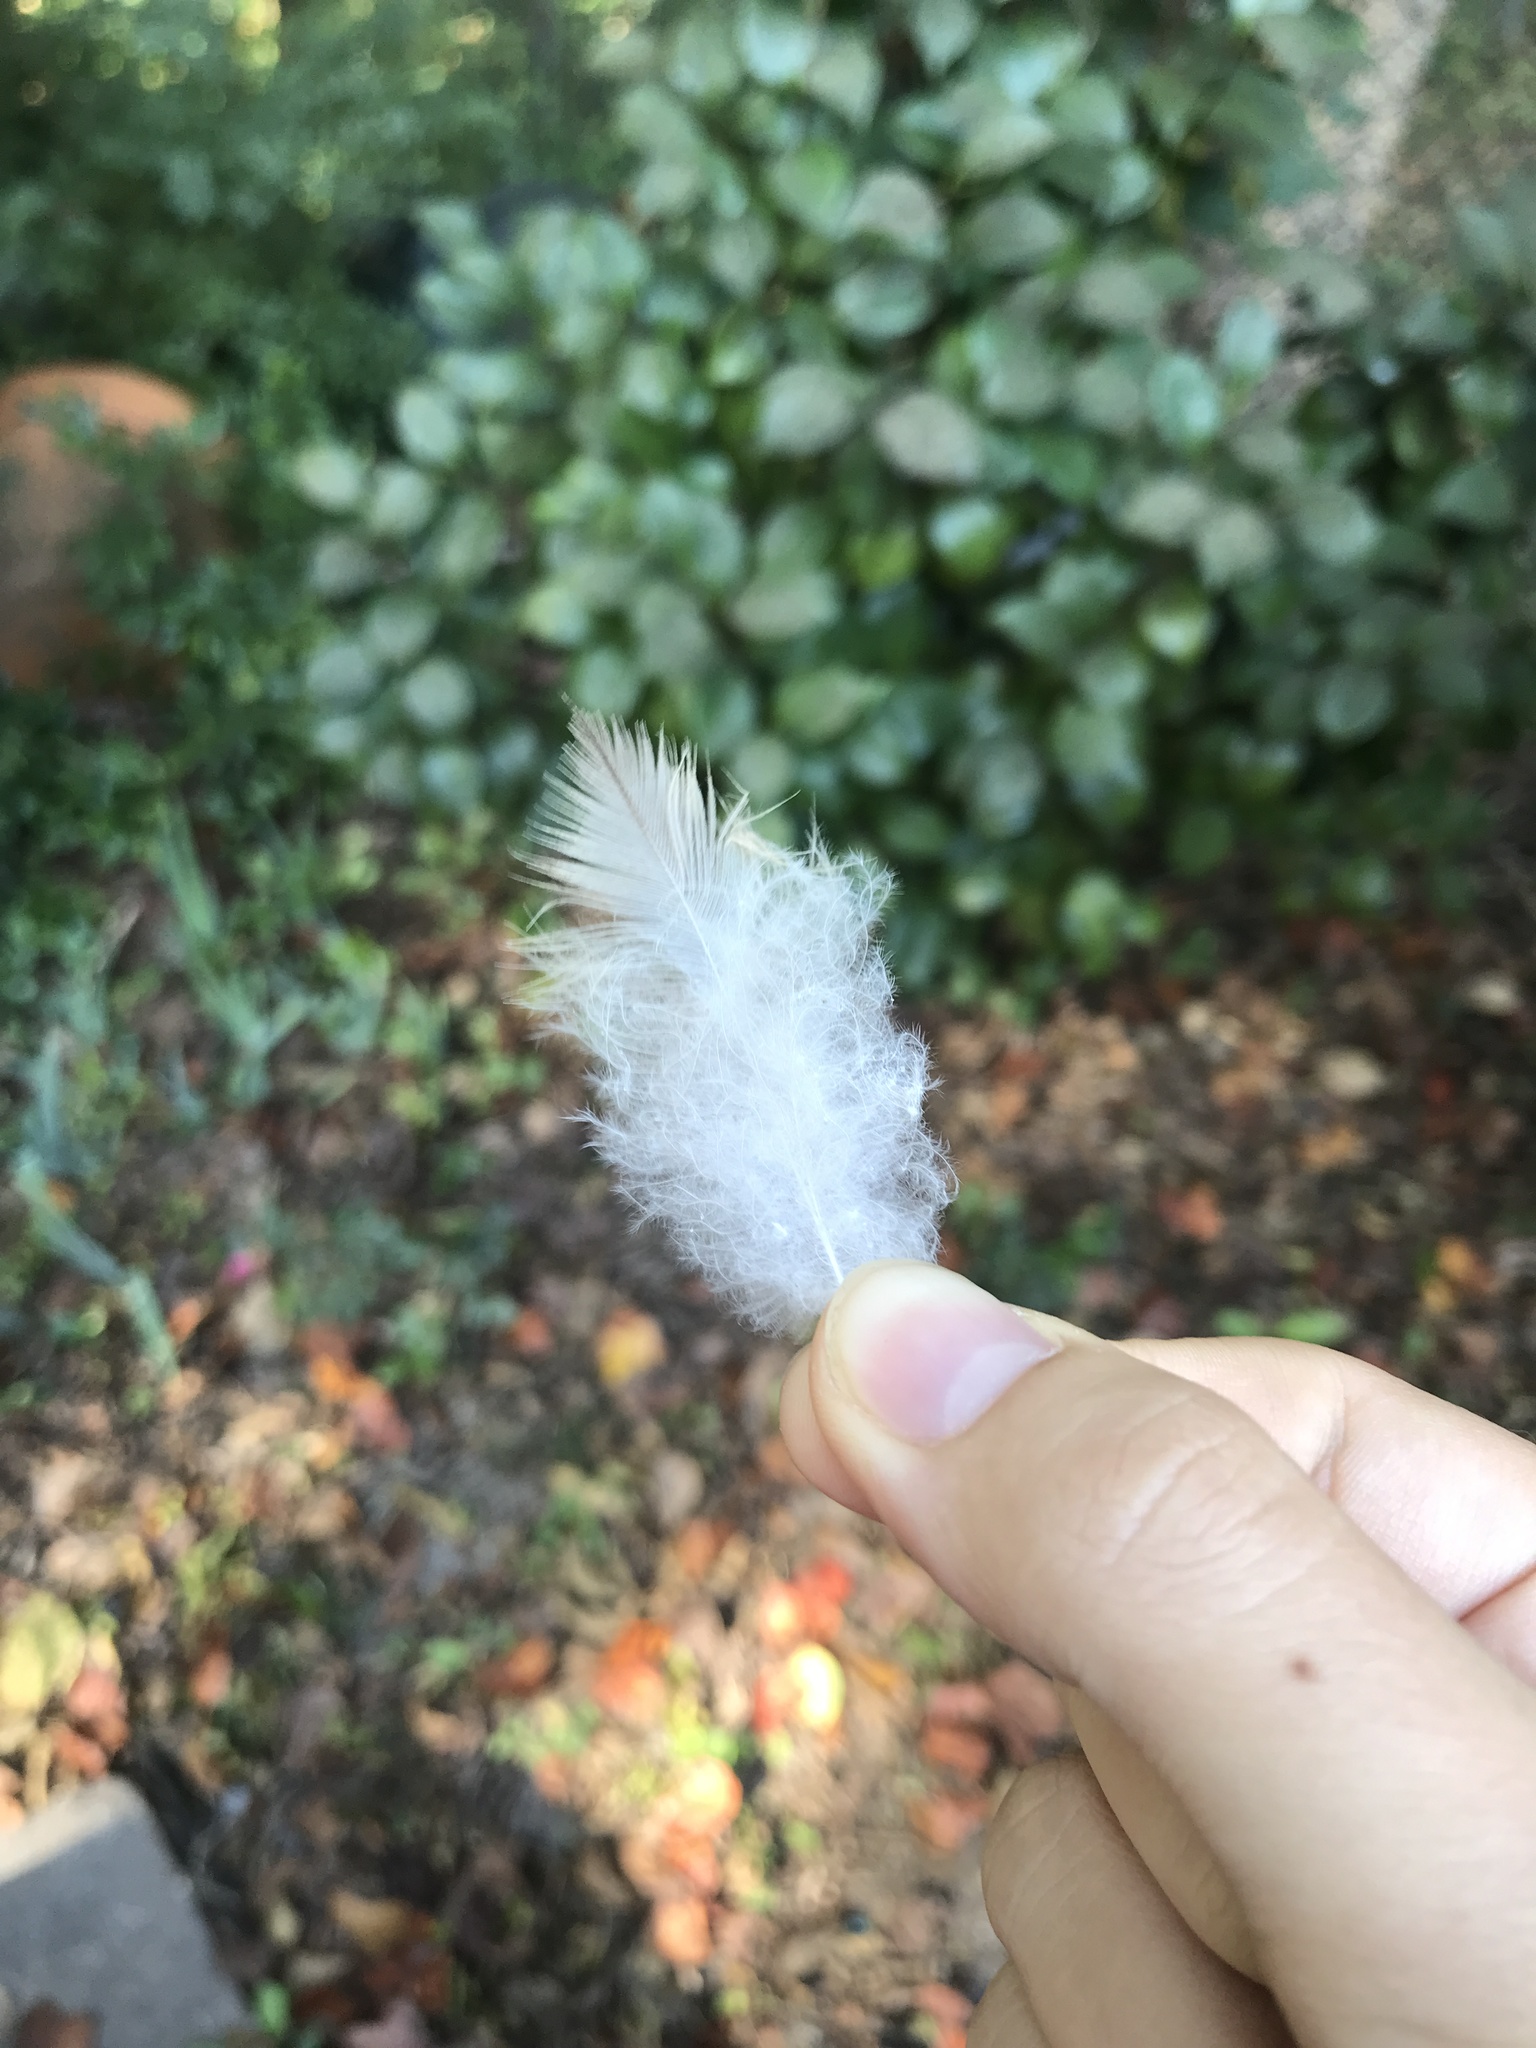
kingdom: Animalia
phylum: Chordata
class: Aves
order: Accipitriformes
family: Accipitridae
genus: Buteo
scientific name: Buteo jamaicensis
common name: Red-tailed hawk
